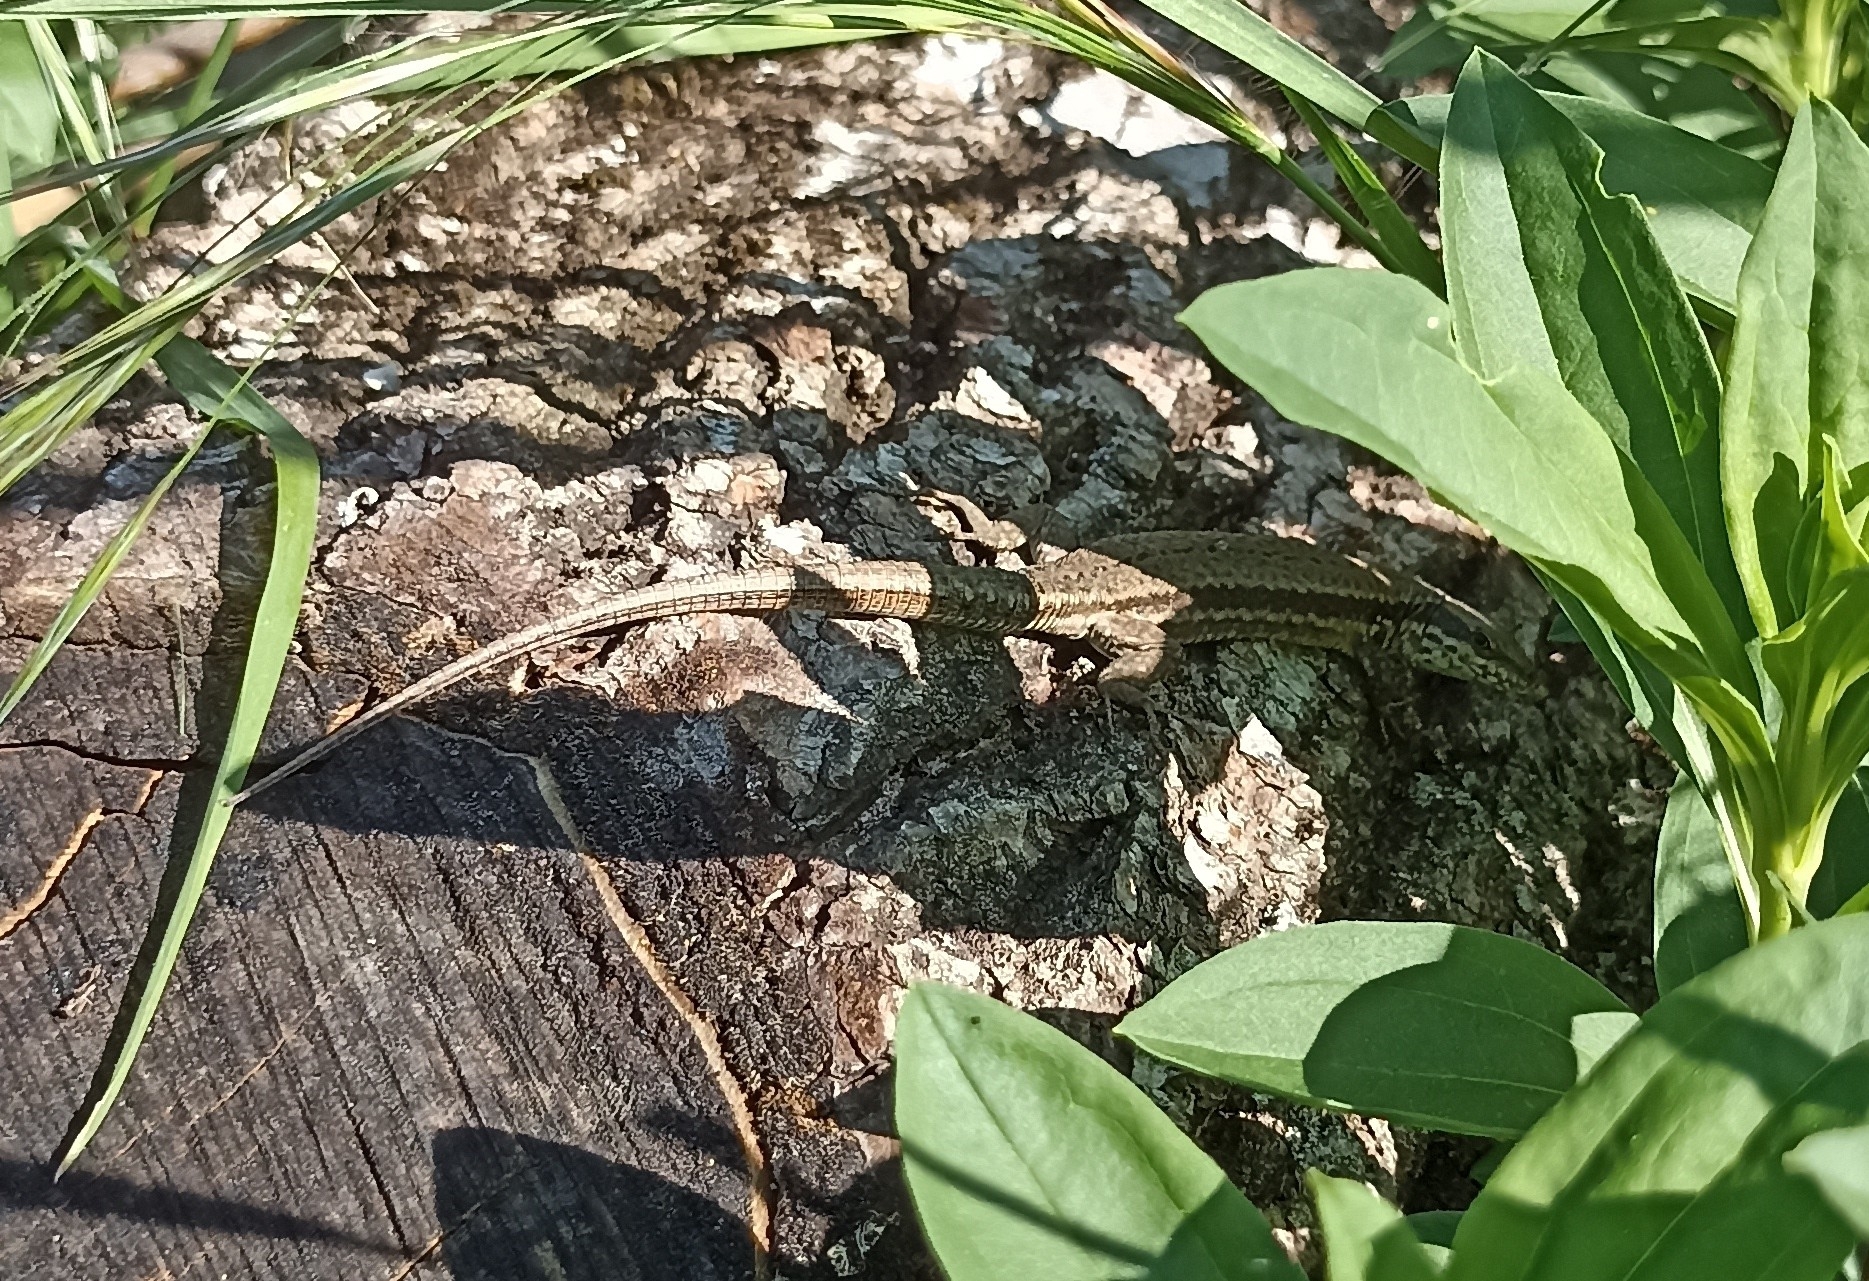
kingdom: Animalia
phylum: Chordata
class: Squamata
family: Lacertidae
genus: Podarcis
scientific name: Podarcis muralis
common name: Common wall lizard
